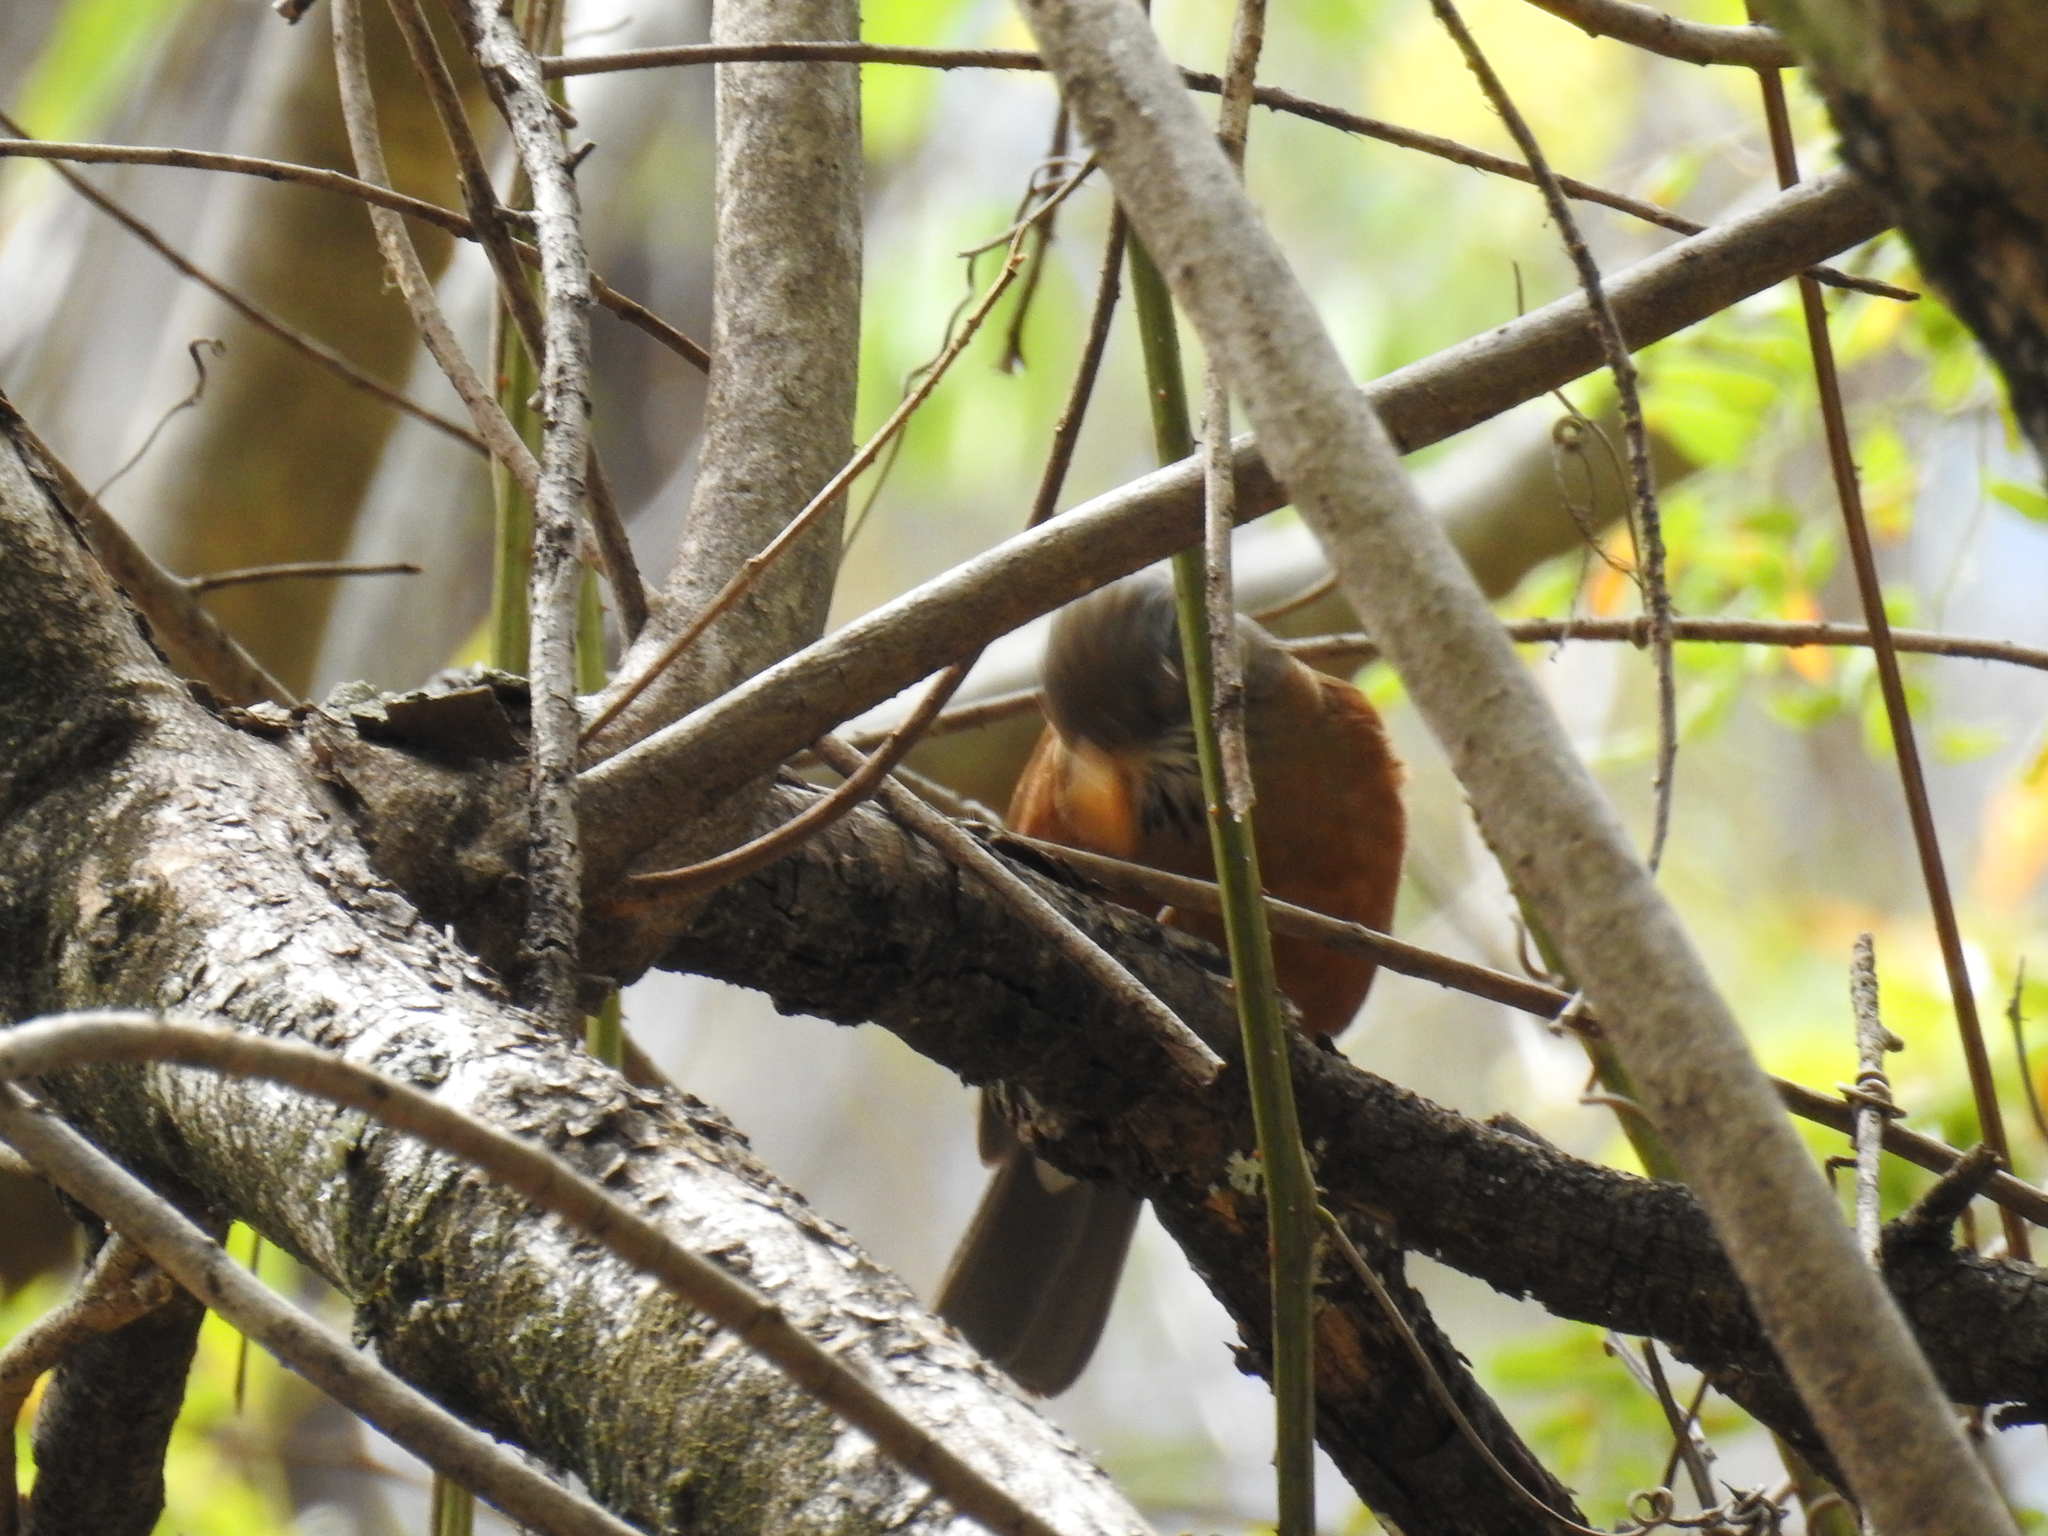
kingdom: Animalia
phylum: Chordata
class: Aves
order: Passeriformes
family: Turdidae
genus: Turdus
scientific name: Turdus rufopalliatus
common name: Rufous-backed robin
